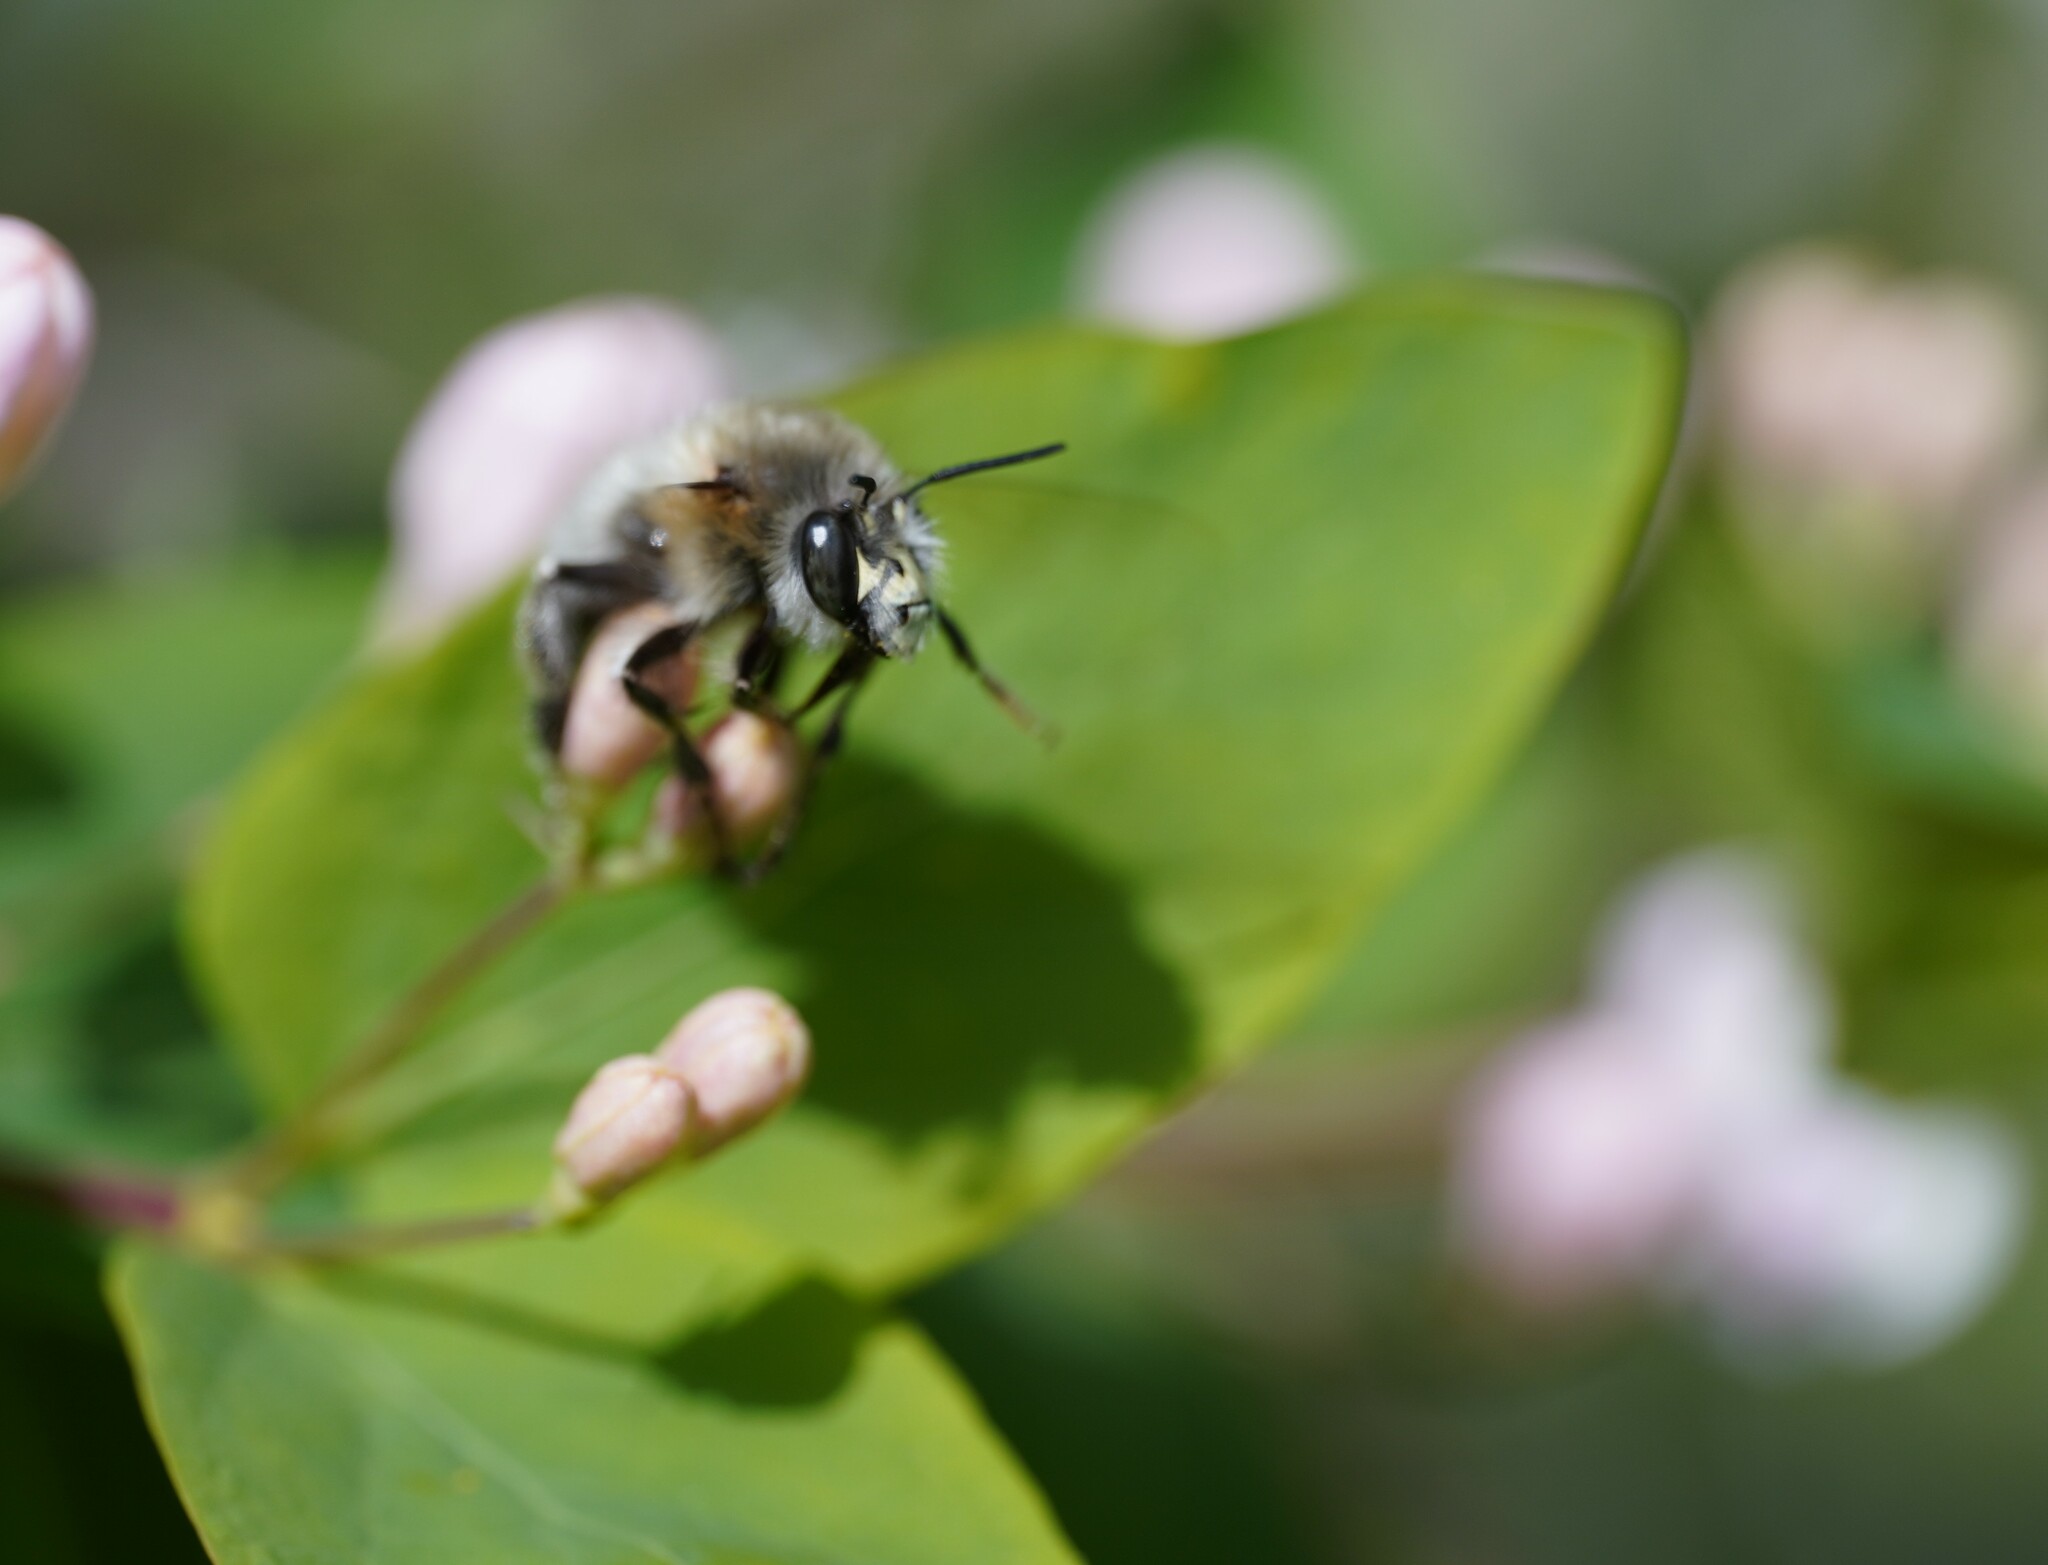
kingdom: Animalia
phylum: Arthropoda
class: Insecta
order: Hymenoptera
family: Apidae
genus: Anthophora
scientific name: Anthophora plumipes
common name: Hairy-footed flower bee
